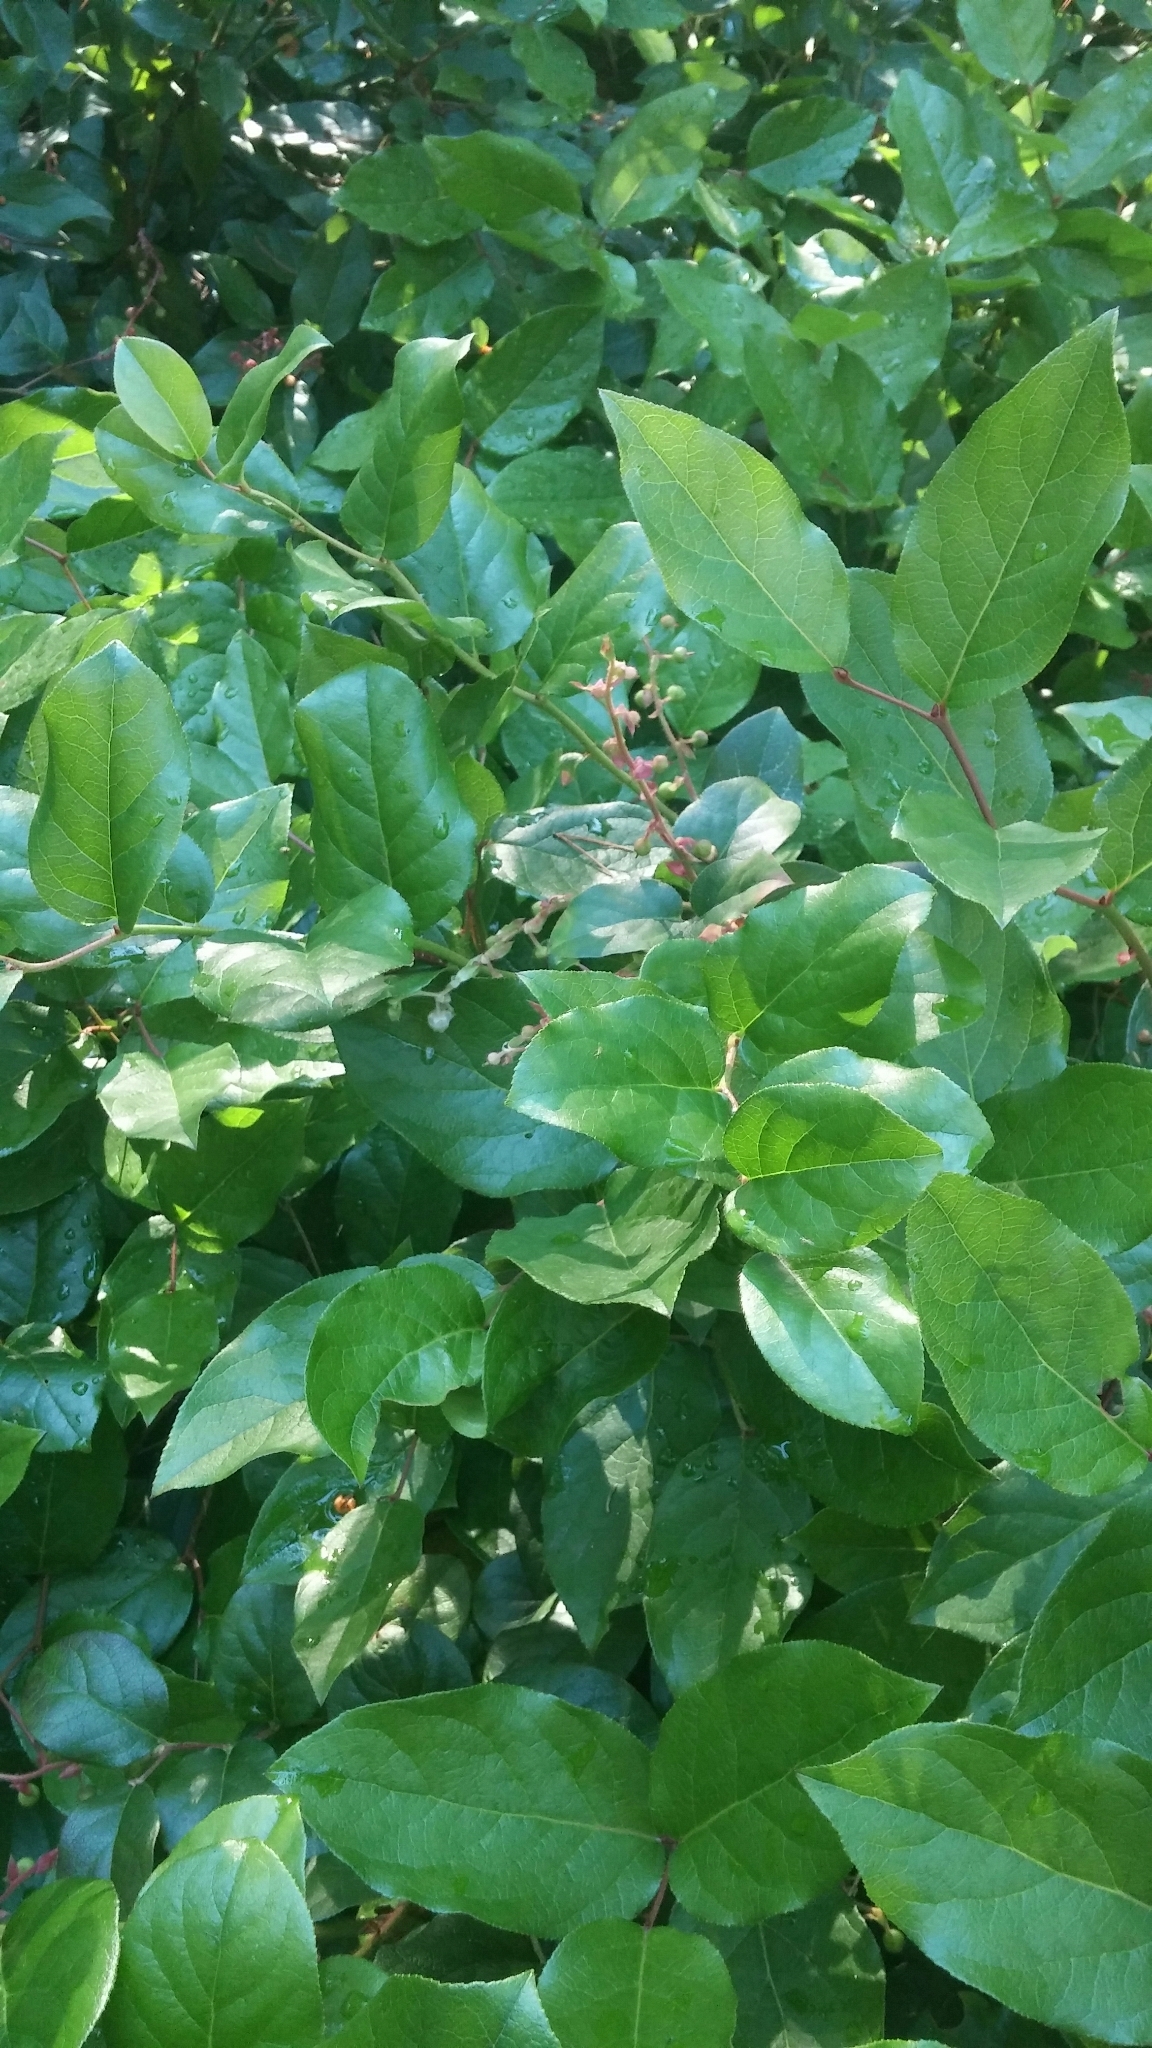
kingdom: Plantae
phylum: Tracheophyta
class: Magnoliopsida
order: Ericales
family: Ericaceae
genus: Gaultheria
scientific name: Gaultheria shallon
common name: Shallon
